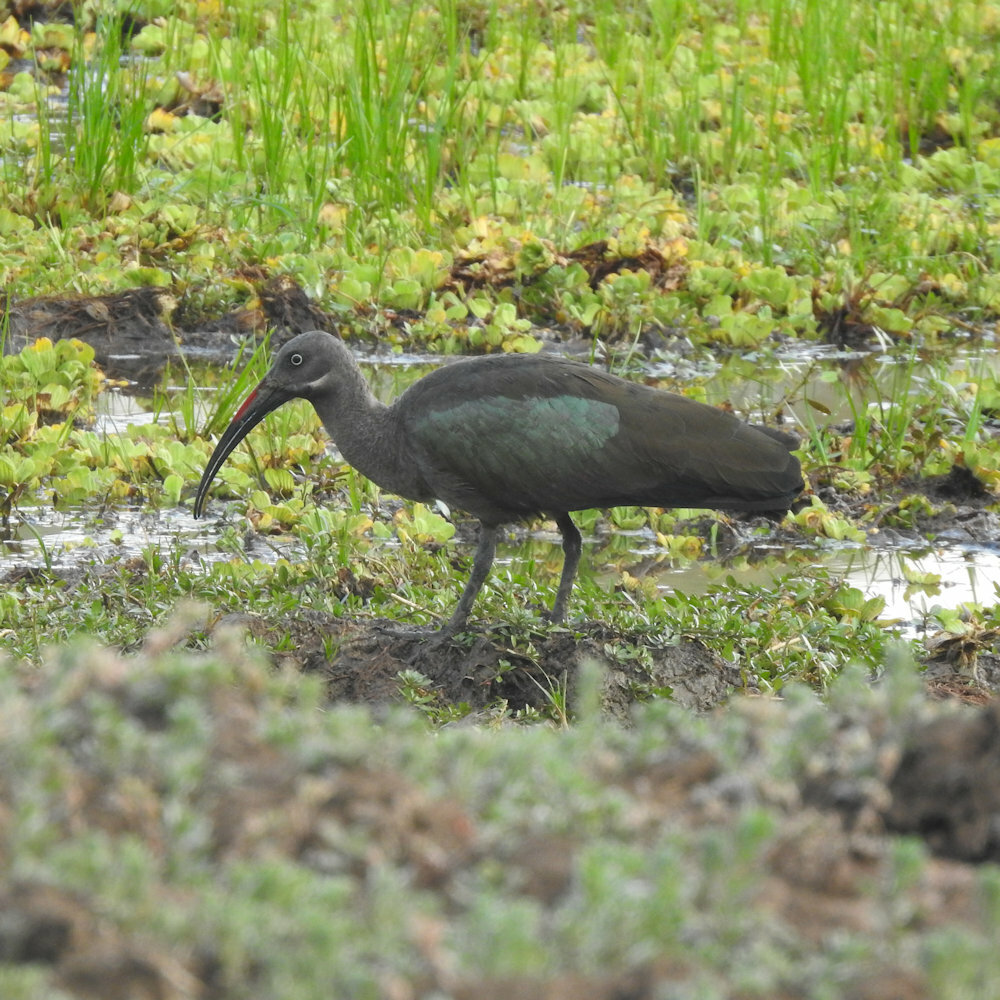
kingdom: Animalia
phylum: Chordata
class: Aves
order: Pelecaniformes
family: Threskiornithidae
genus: Bostrychia
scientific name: Bostrychia hagedash
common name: Hadada ibis
